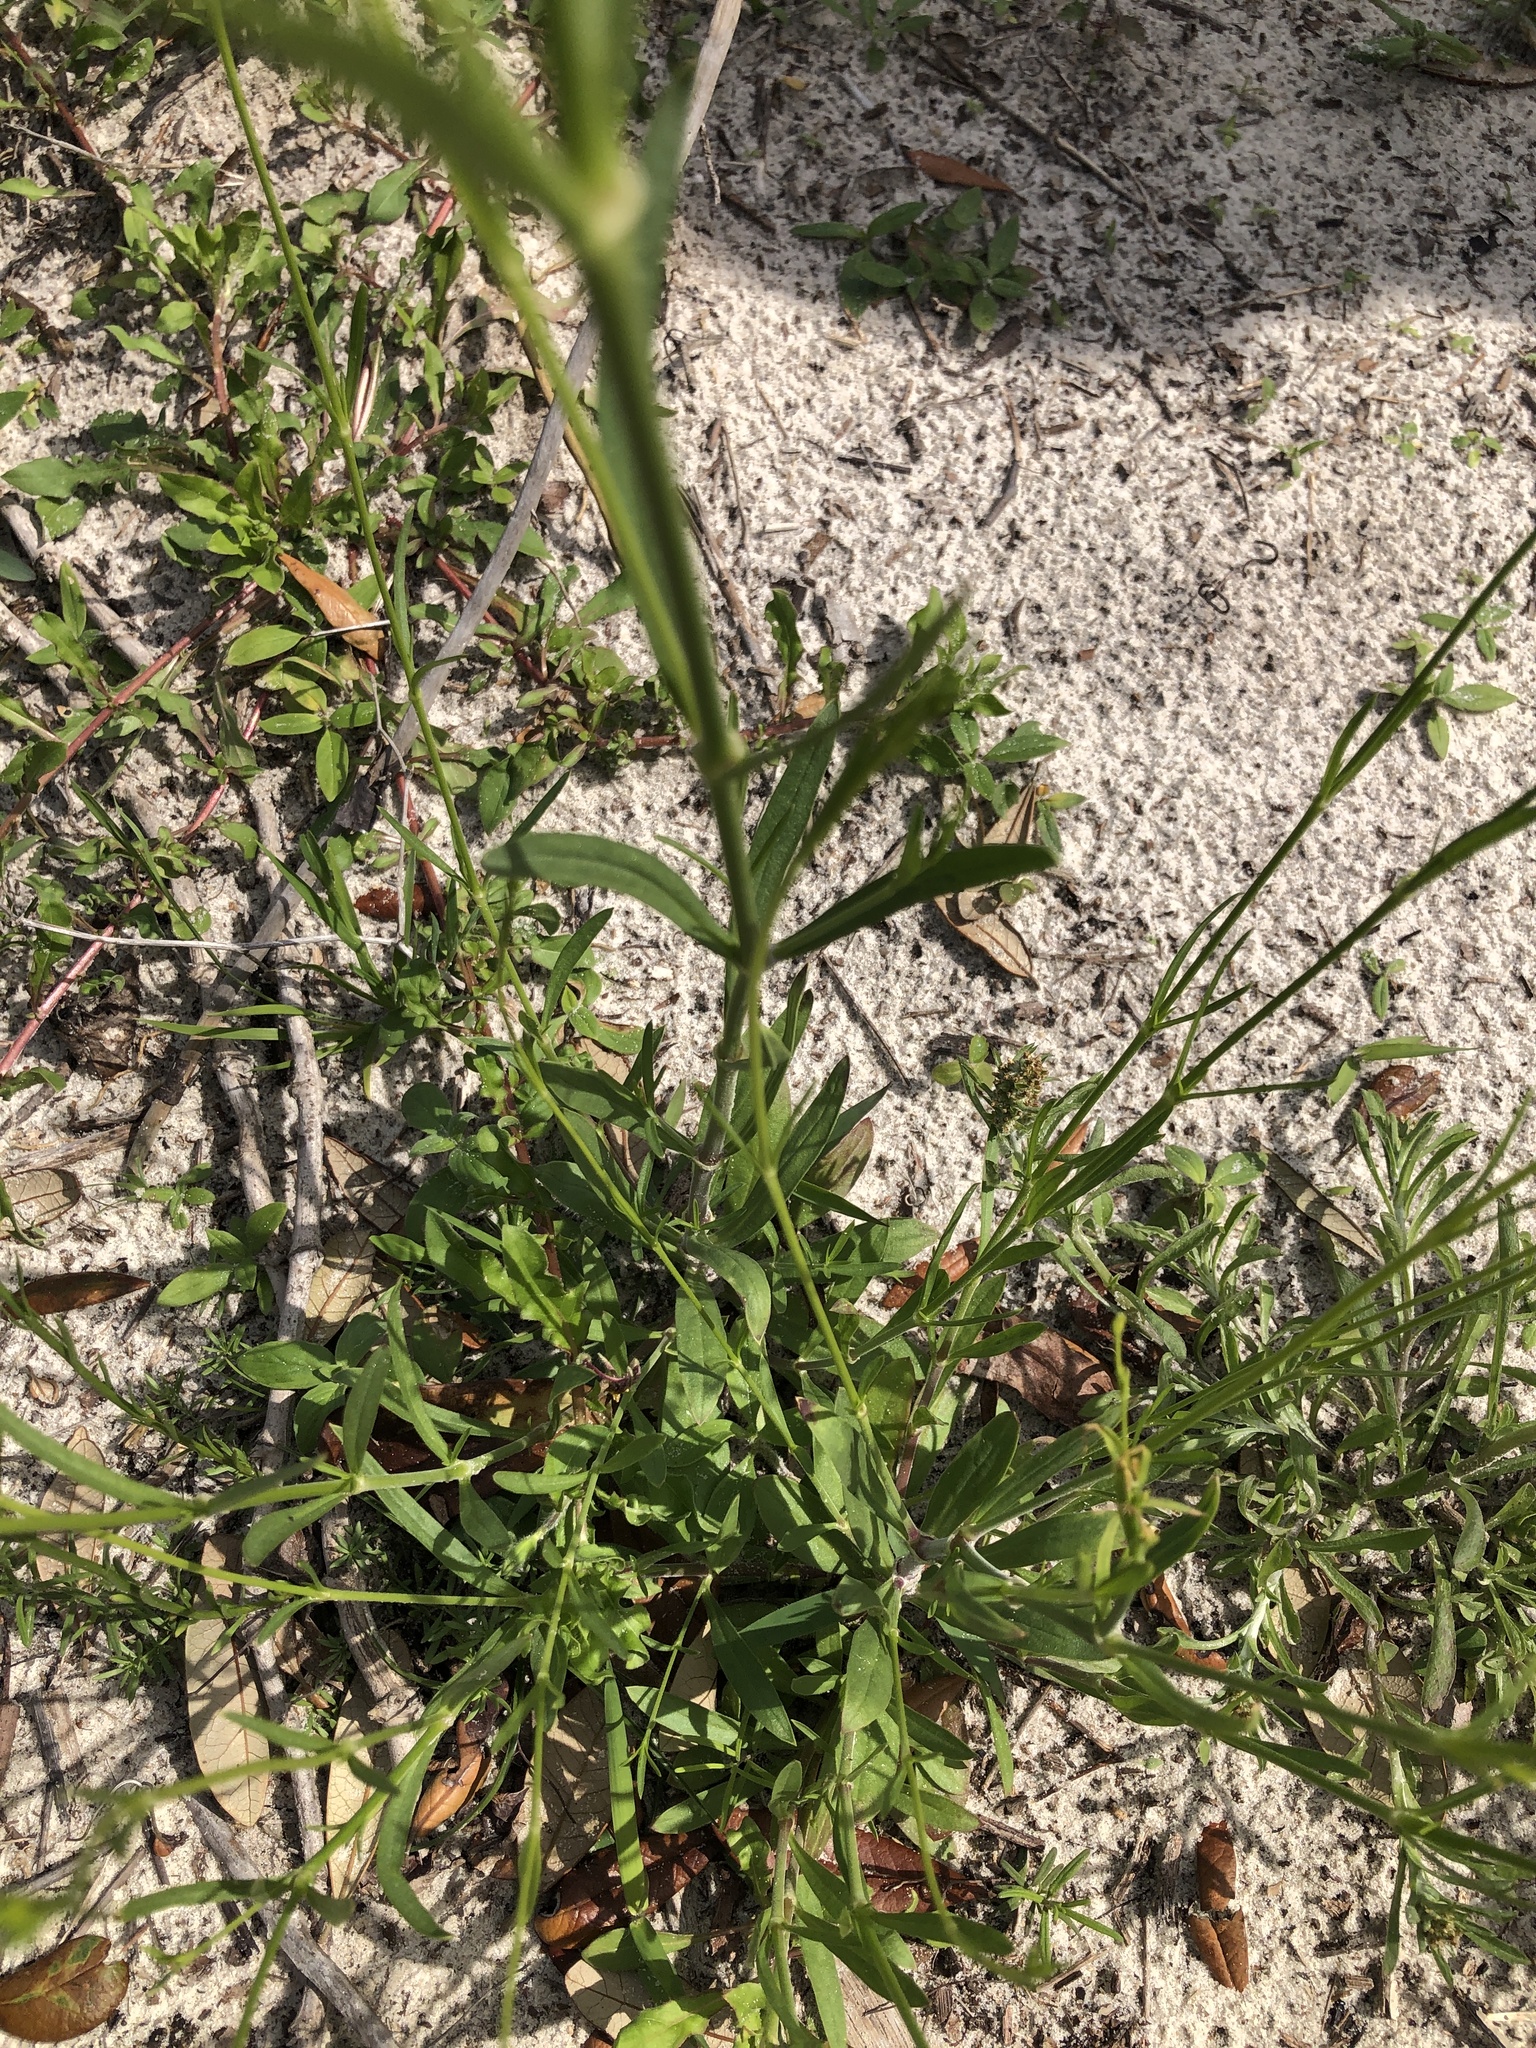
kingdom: Plantae
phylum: Tracheophyta
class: Magnoliopsida
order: Caryophyllales
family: Caryophyllaceae
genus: Silene
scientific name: Silene antirrhina
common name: Sleepy catchfly
